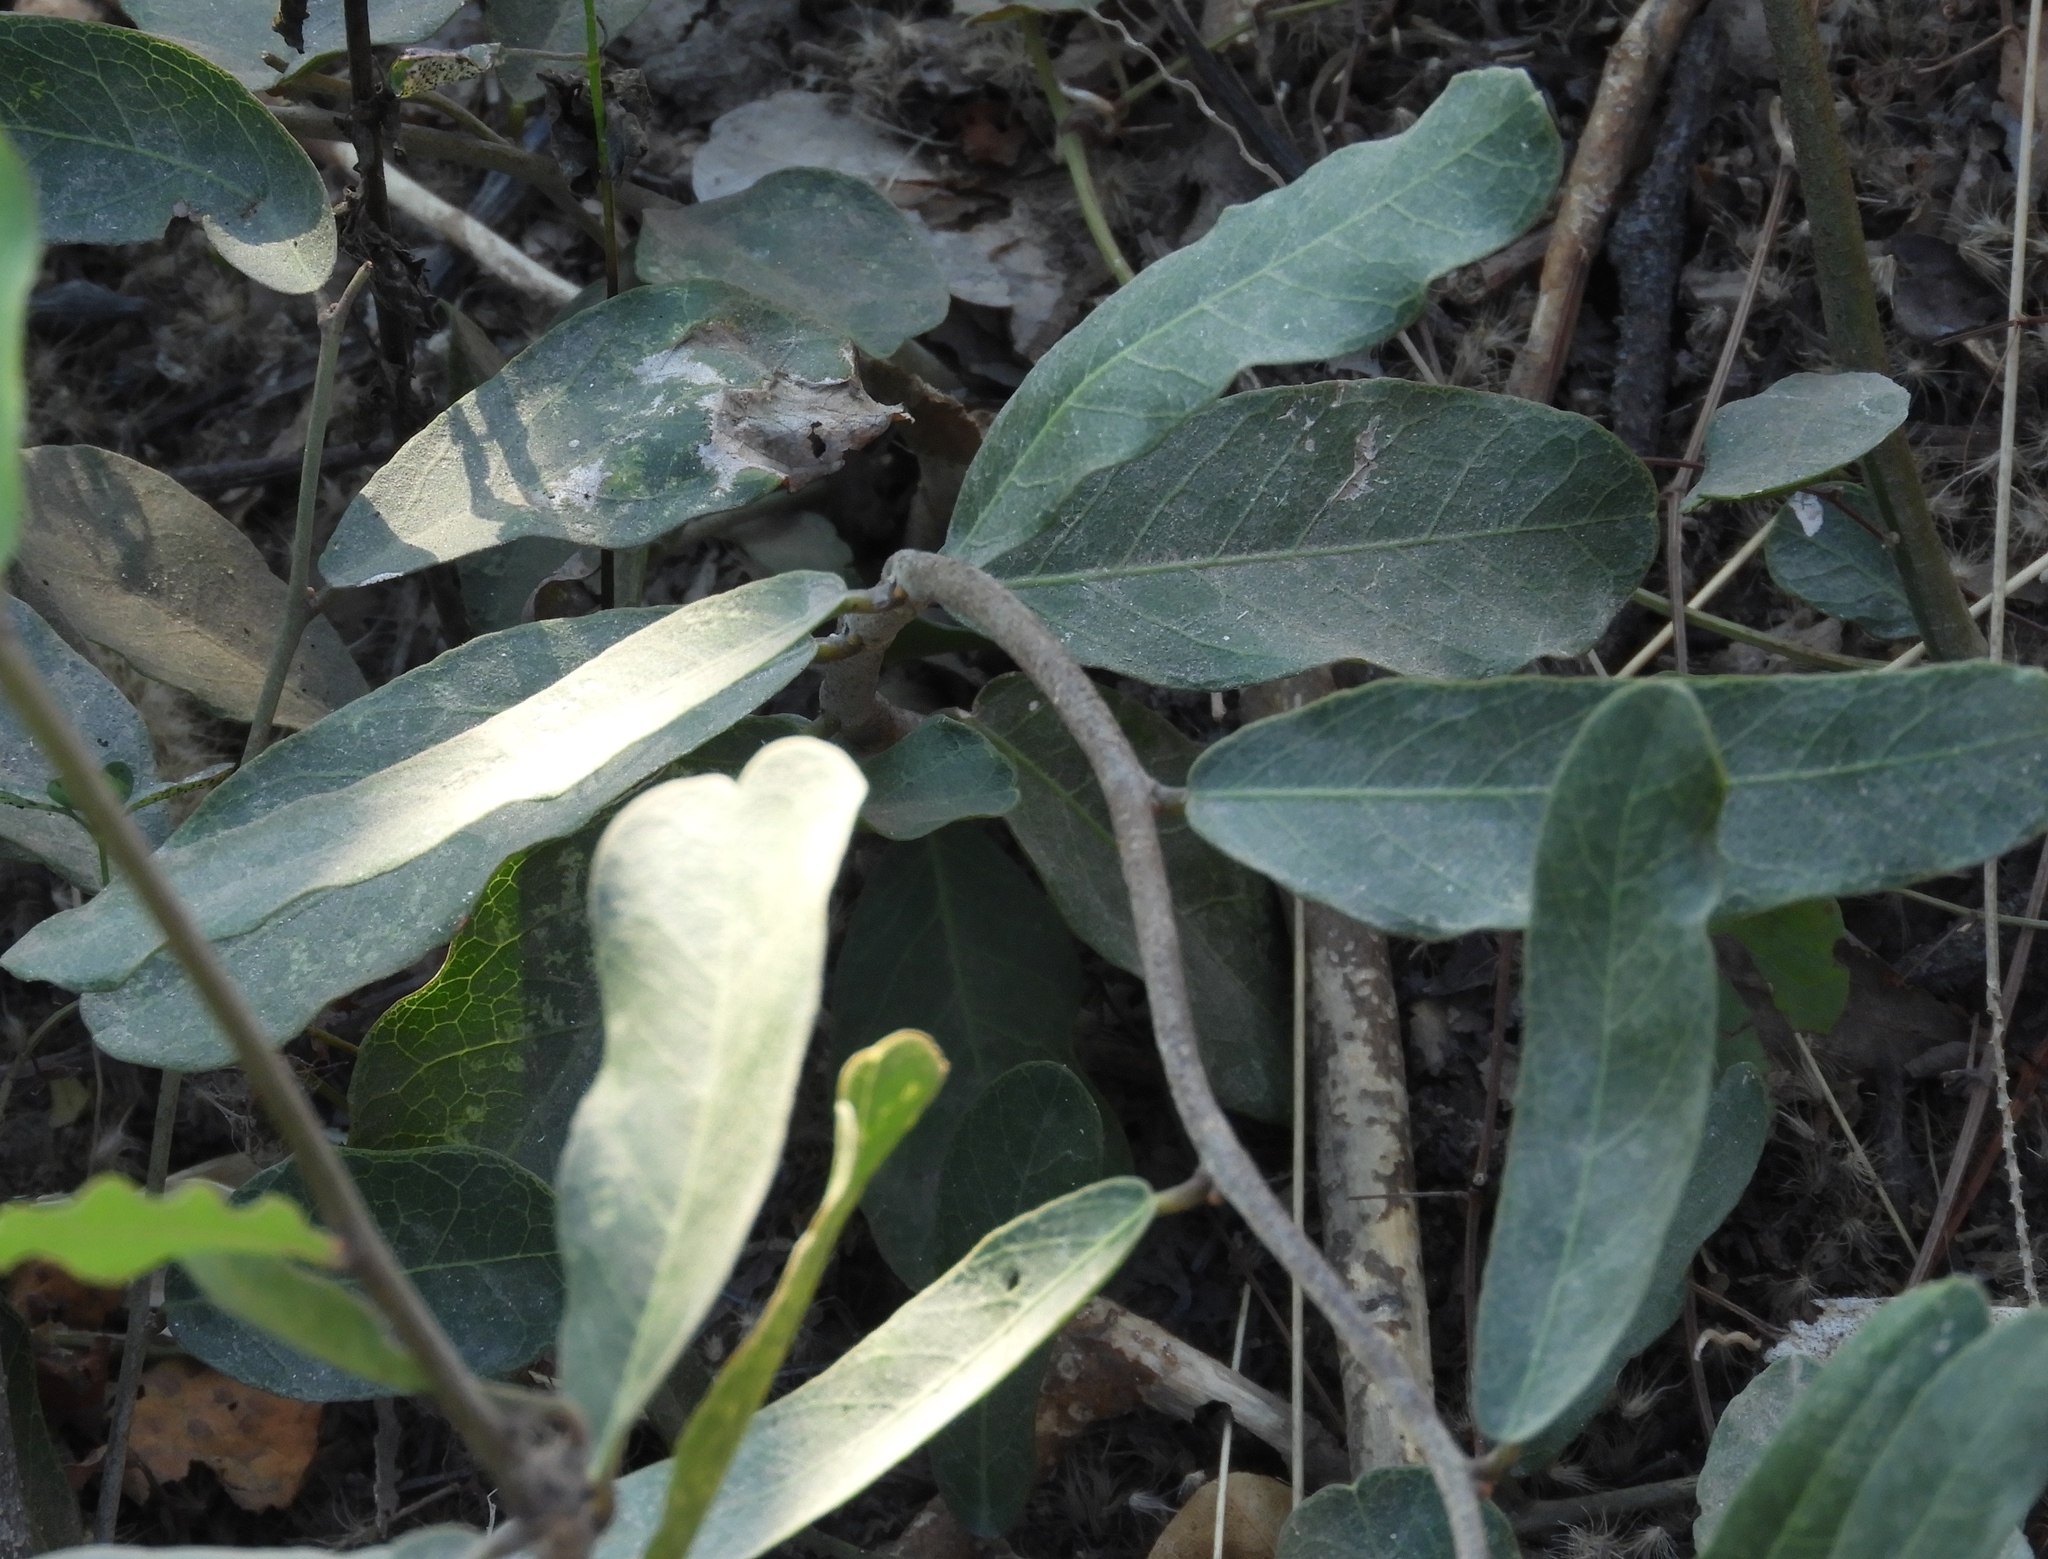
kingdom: Plantae
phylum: Tracheophyta
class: Magnoliopsida
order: Brassicales
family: Capparaceae
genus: Cynophalla
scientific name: Cynophalla flexuosa
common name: Capertree
